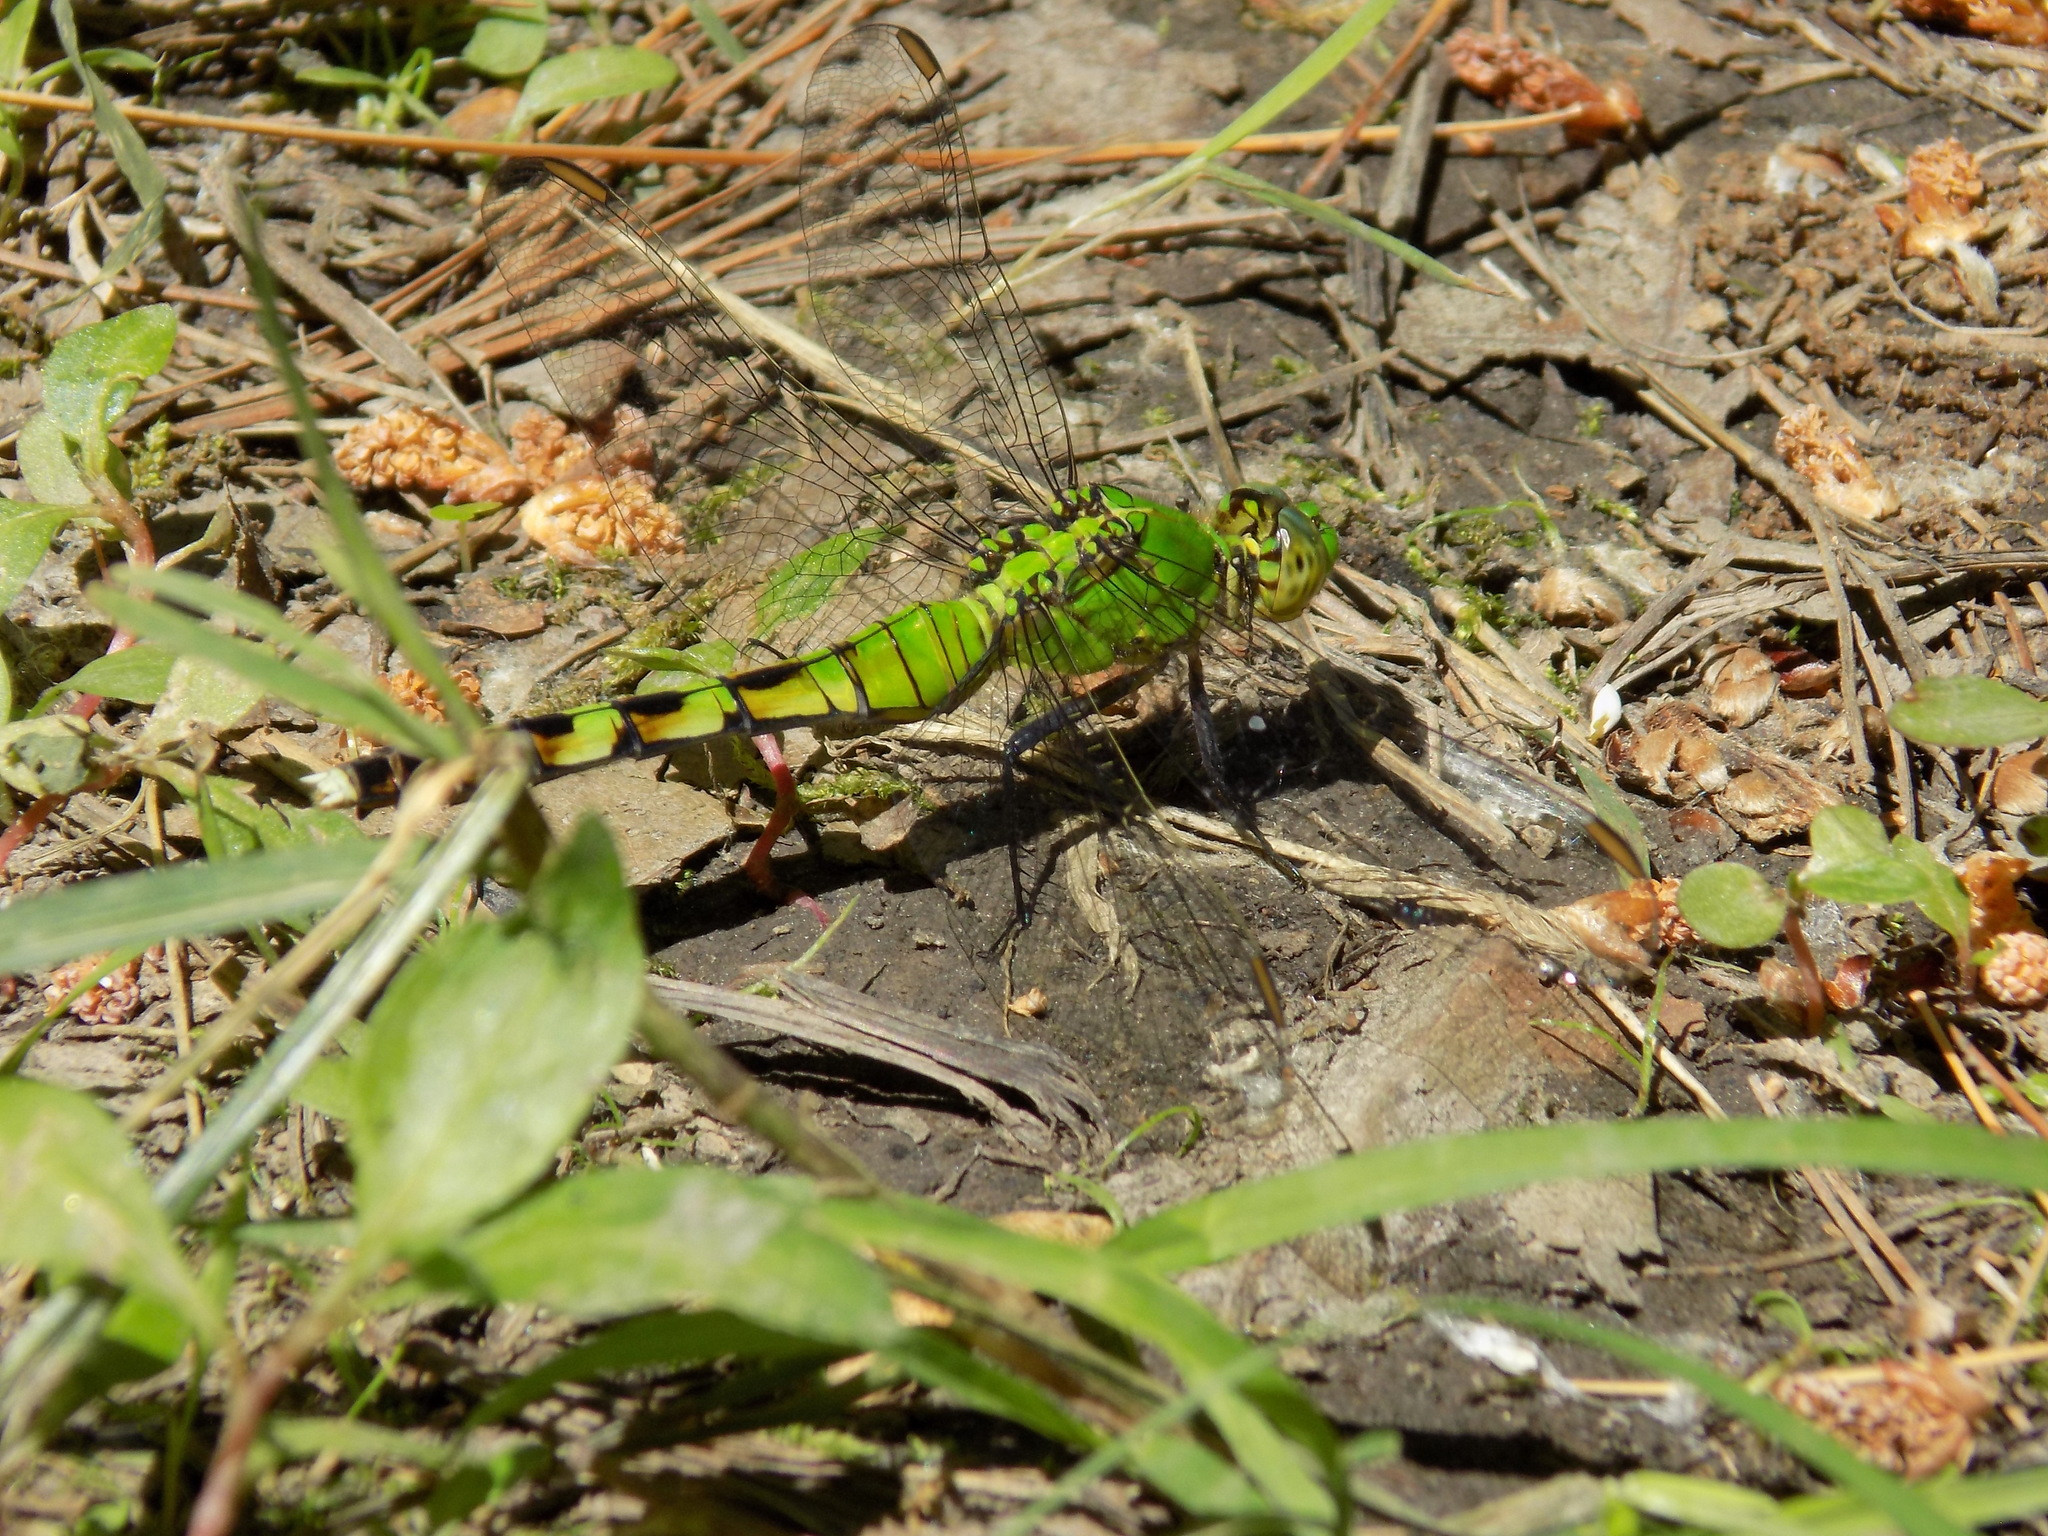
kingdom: Animalia
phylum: Arthropoda
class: Insecta
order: Odonata
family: Libellulidae
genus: Erythemis
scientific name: Erythemis simplicicollis
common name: Eastern pondhawk
